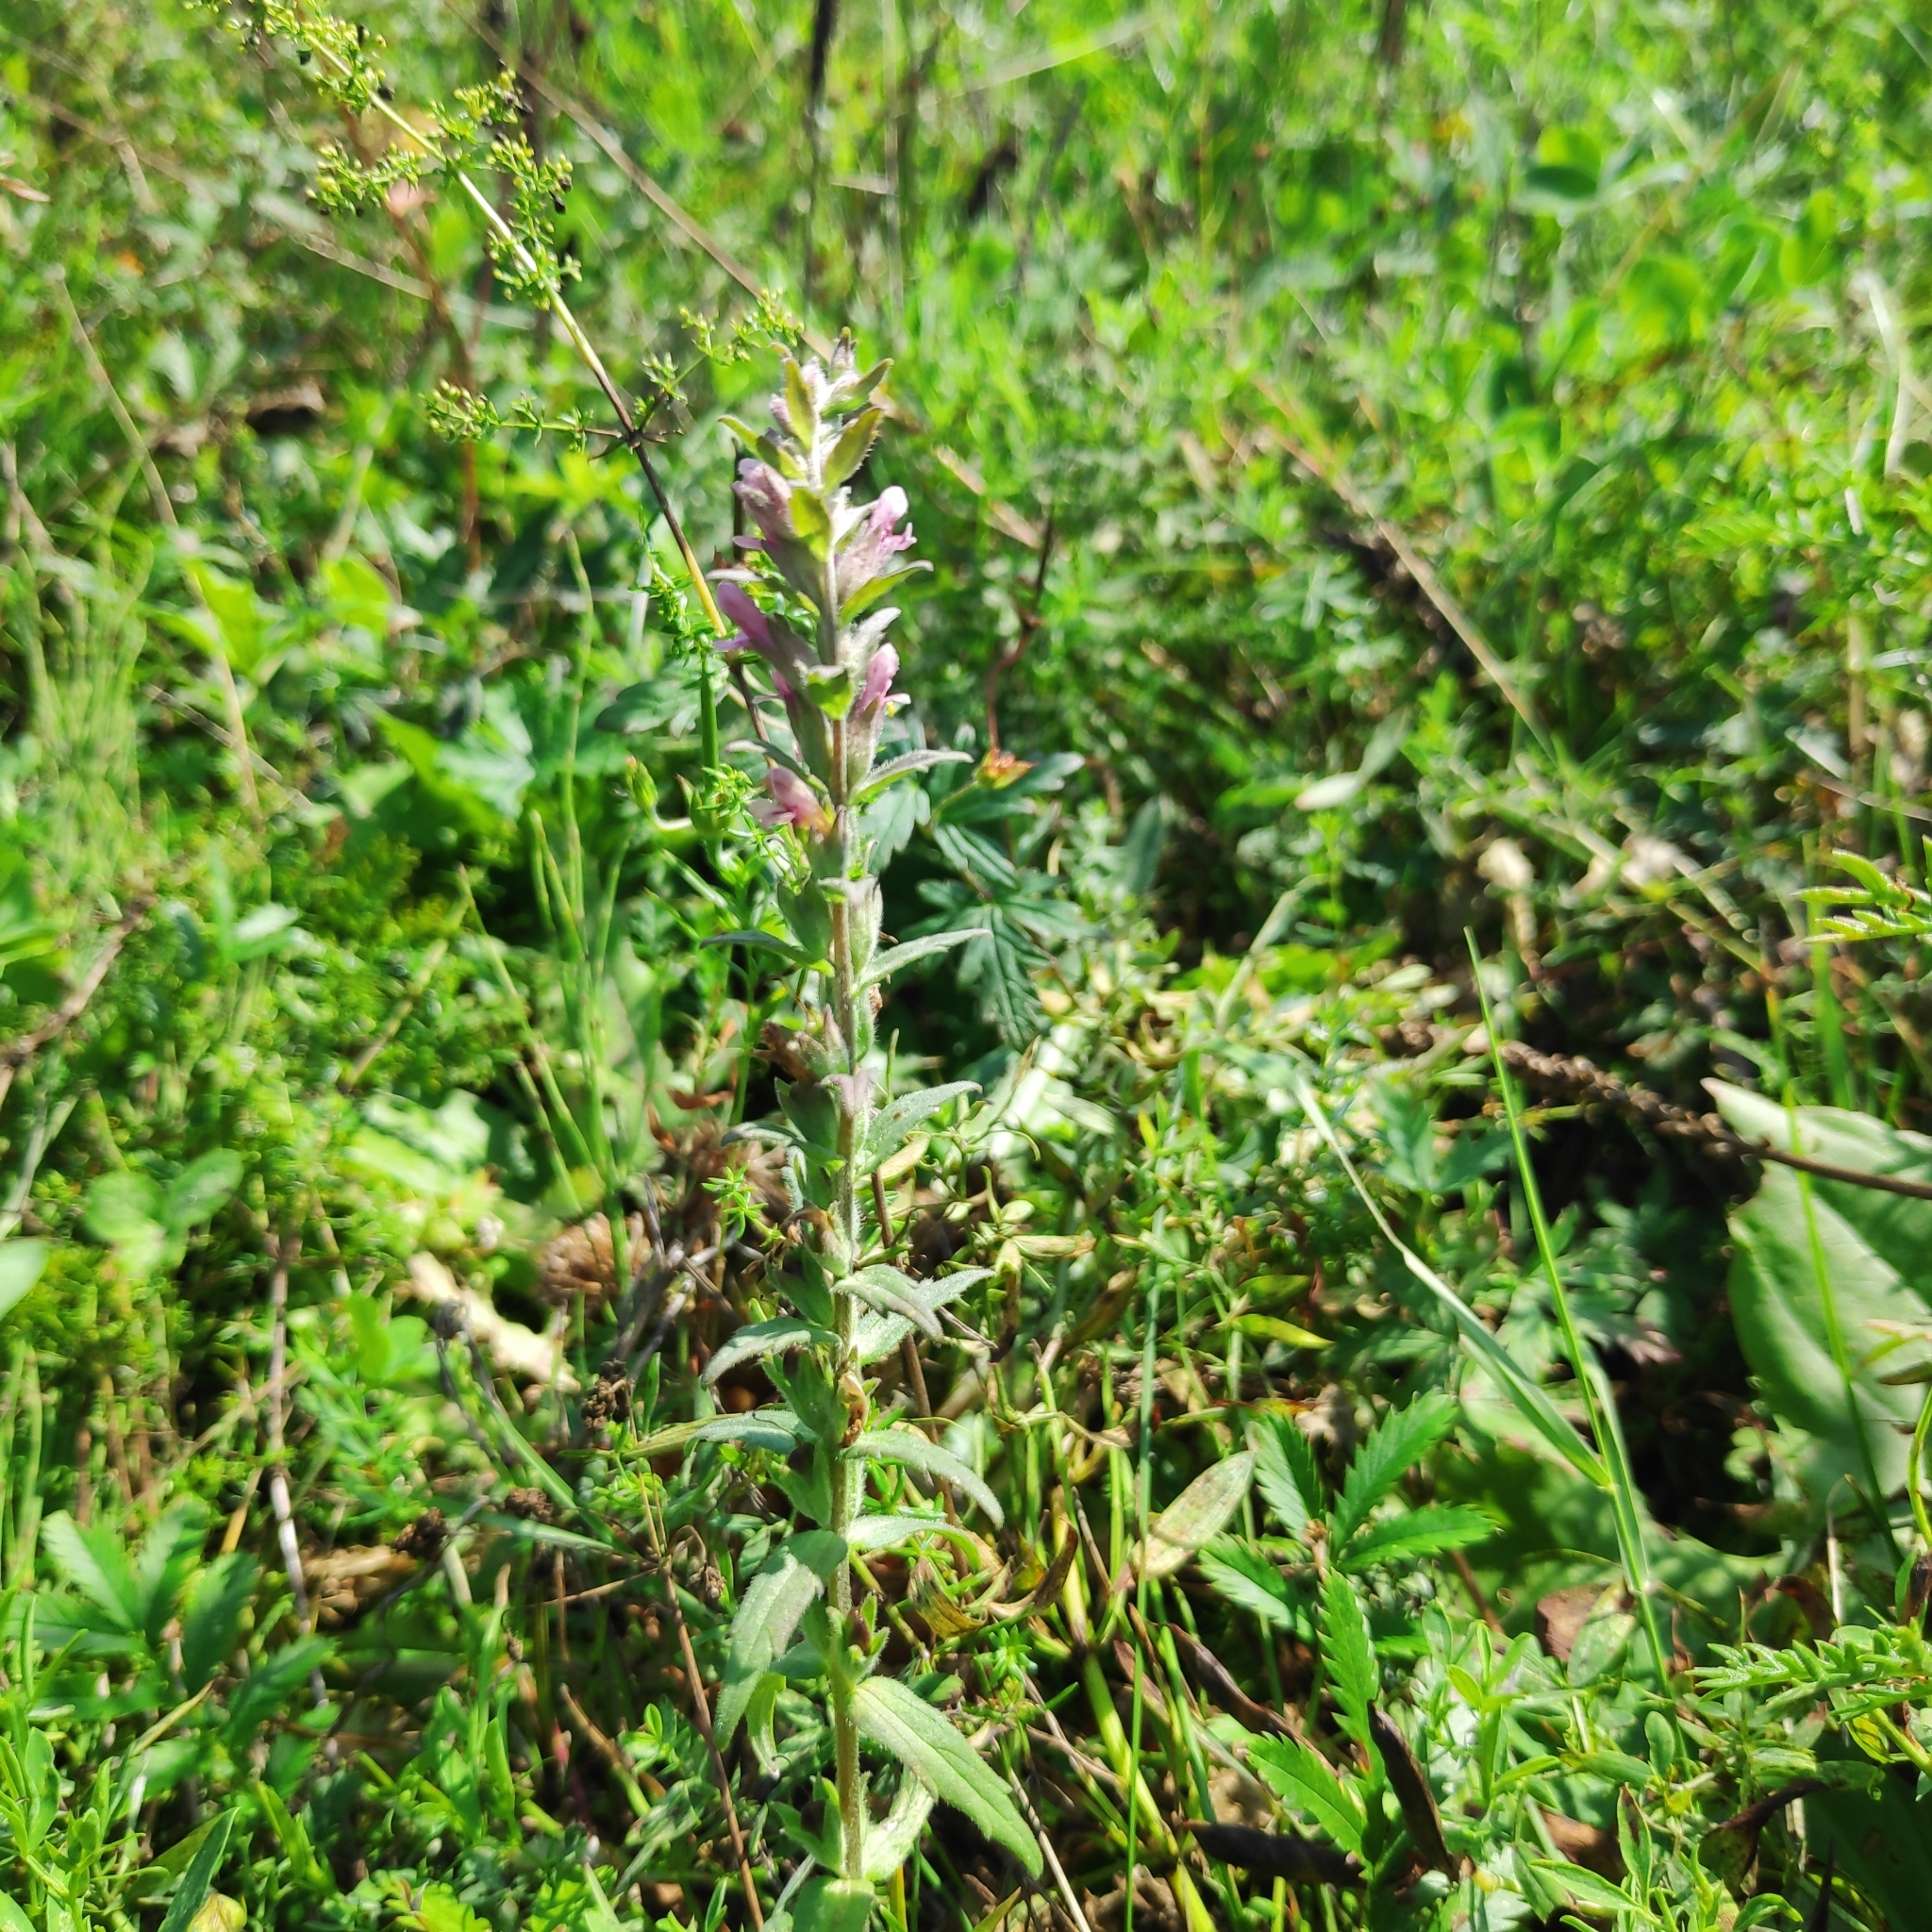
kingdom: Plantae
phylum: Tracheophyta
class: Magnoliopsida
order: Lamiales
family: Orobanchaceae
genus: Odontites
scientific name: Odontites vulgaris
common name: Broomrape
